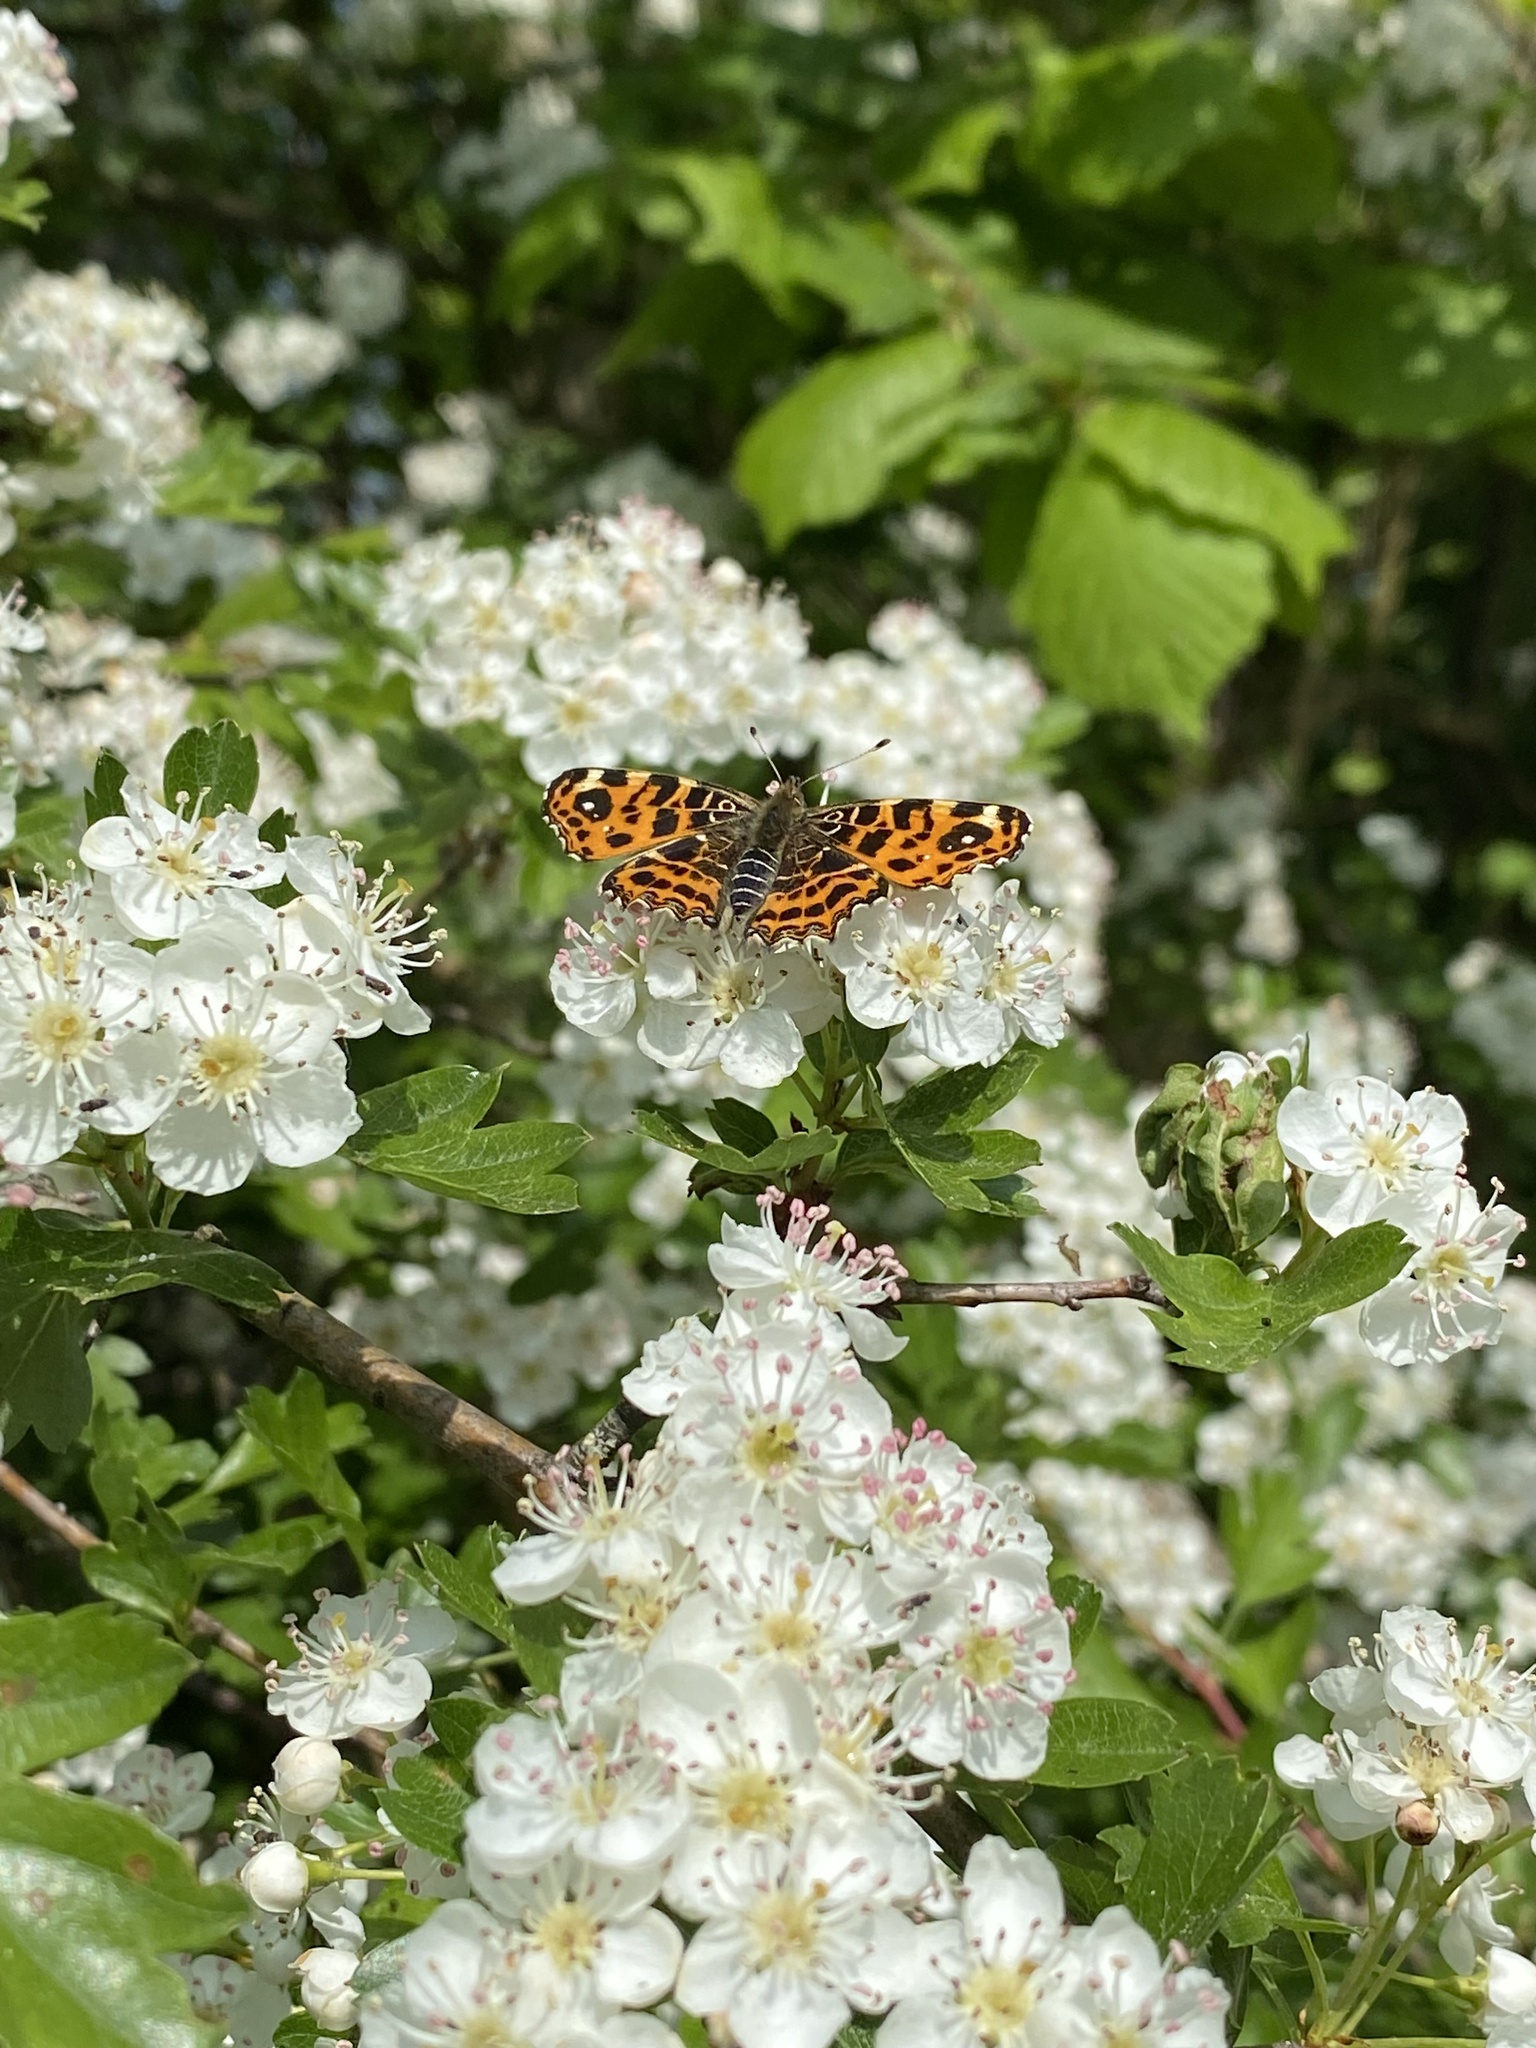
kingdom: Animalia
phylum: Arthropoda
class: Insecta
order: Lepidoptera
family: Nymphalidae
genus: Araschnia
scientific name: Araschnia levana
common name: Map butterfly
